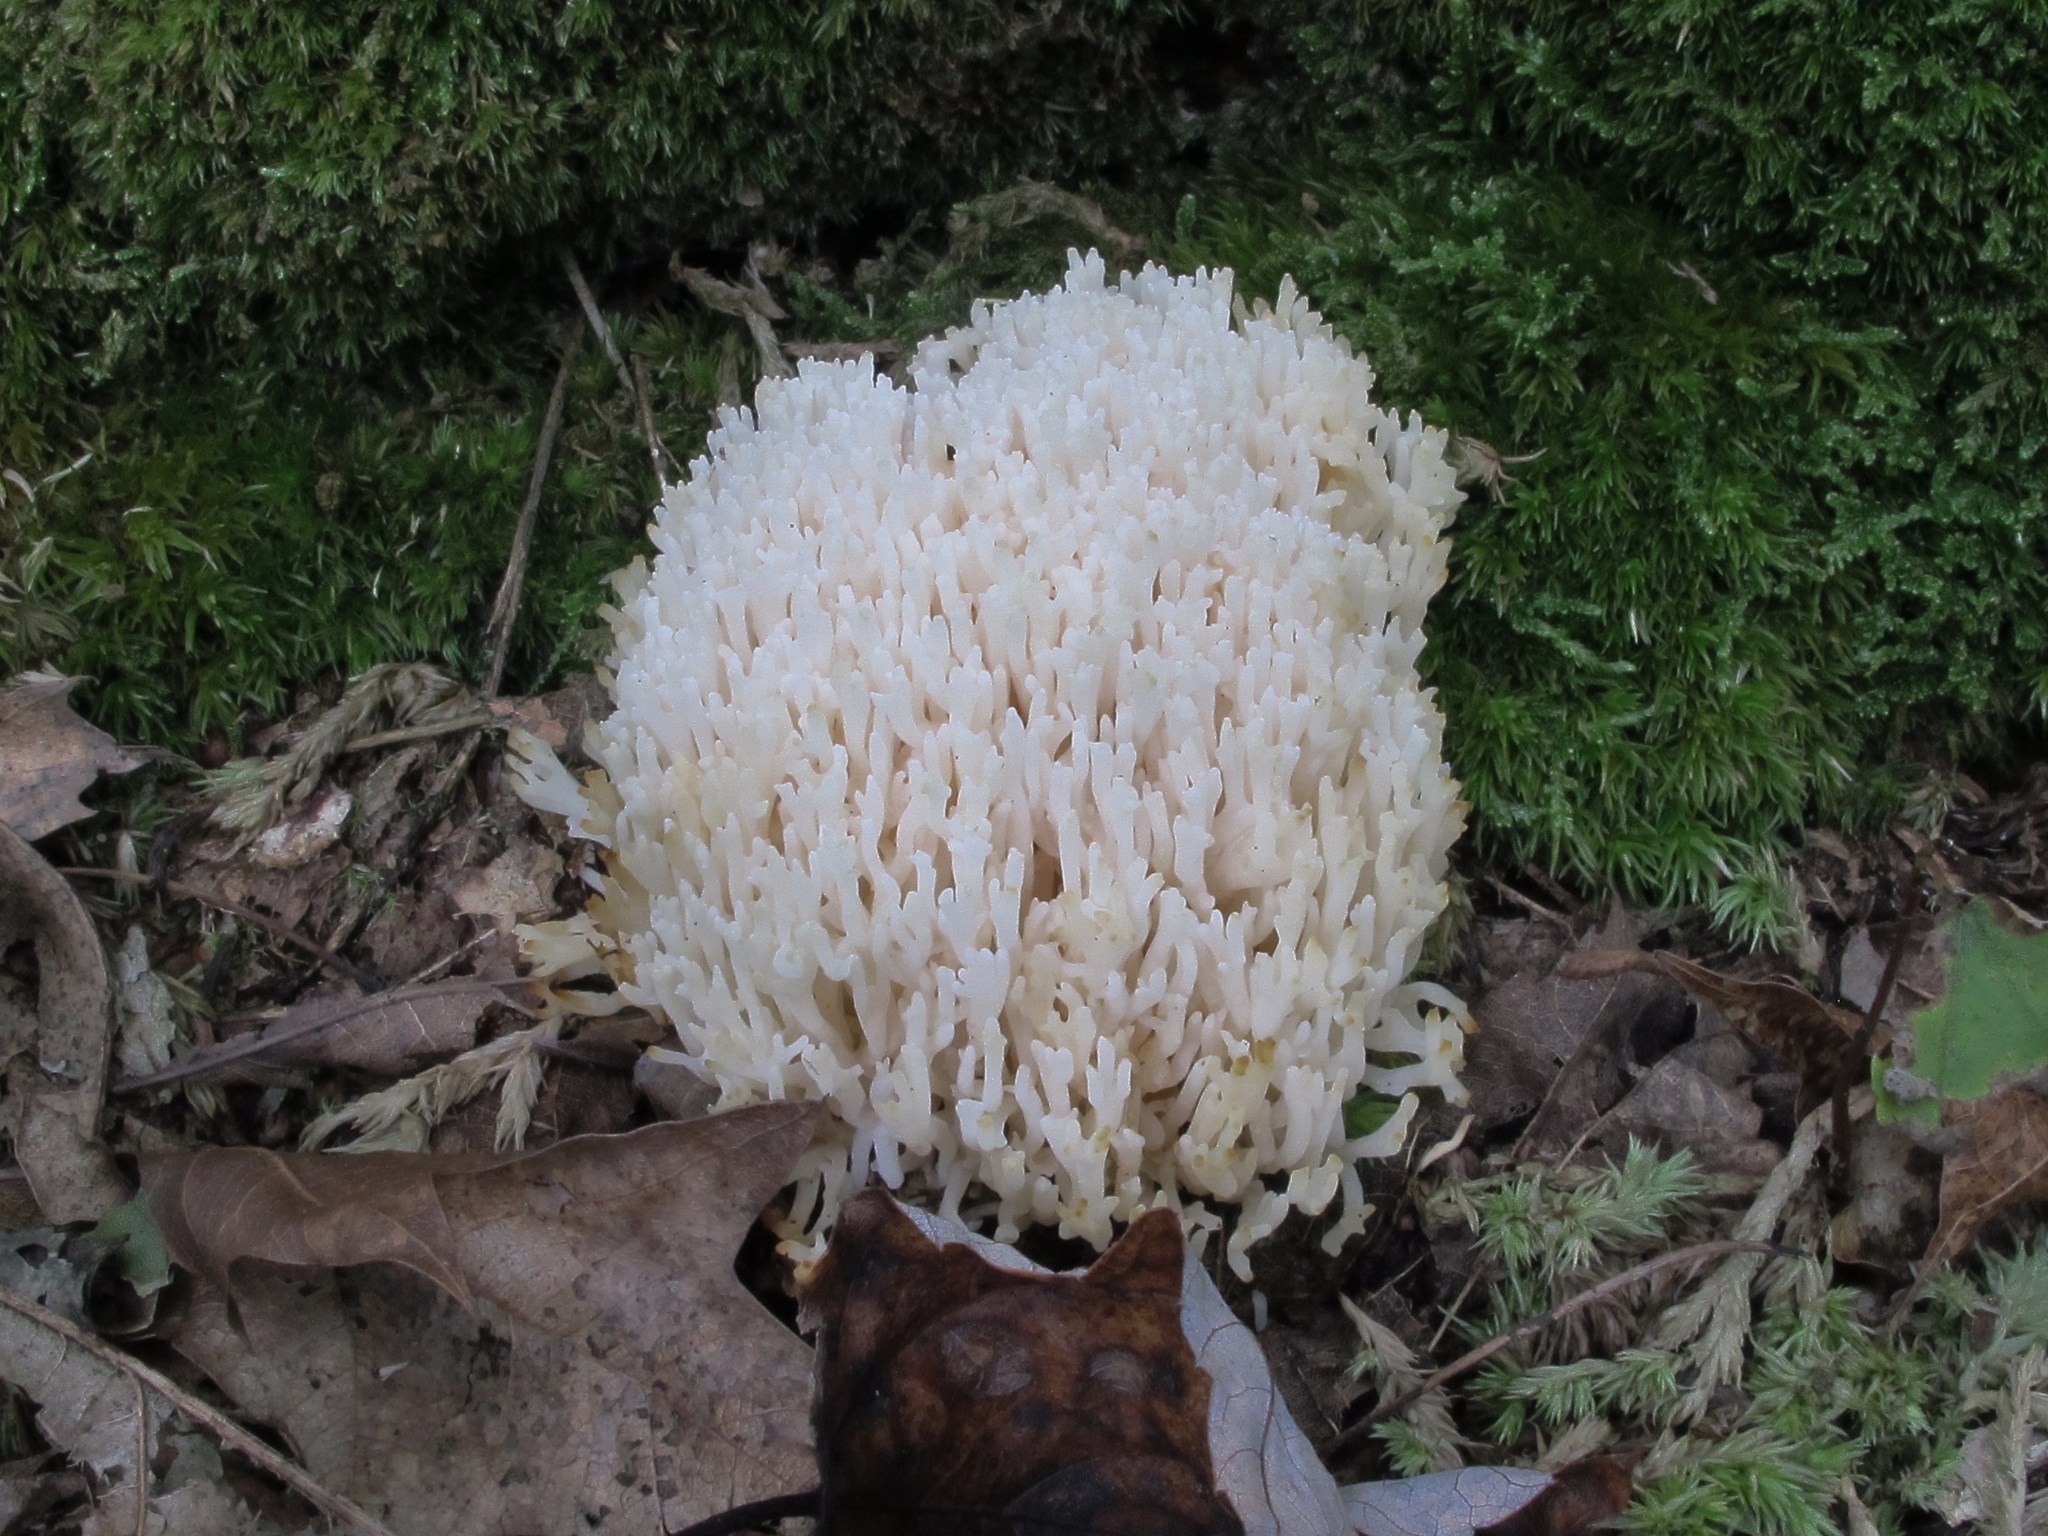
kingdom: Fungi
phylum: Basidiomycota
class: Agaricomycetes
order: Agaricales
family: Clavariaceae
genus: Ramariopsis
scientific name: Ramariopsis kunzei
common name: Ivory coral
